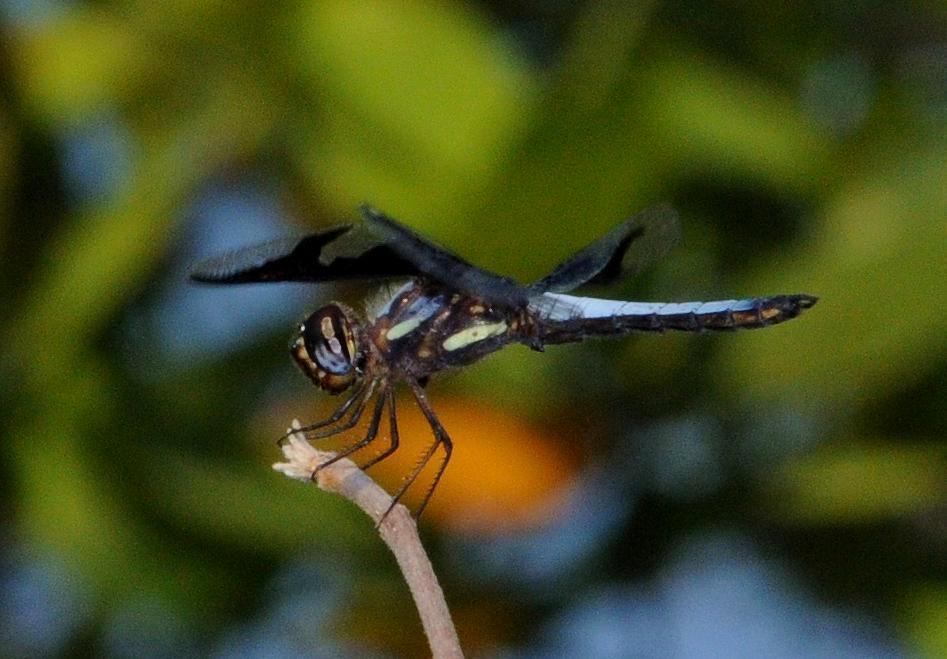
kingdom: Animalia
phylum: Arthropoda
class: Insecta
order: Odonata
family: Libellulidae
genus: Palpopleura
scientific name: Palpopleura portia
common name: Portia widow
